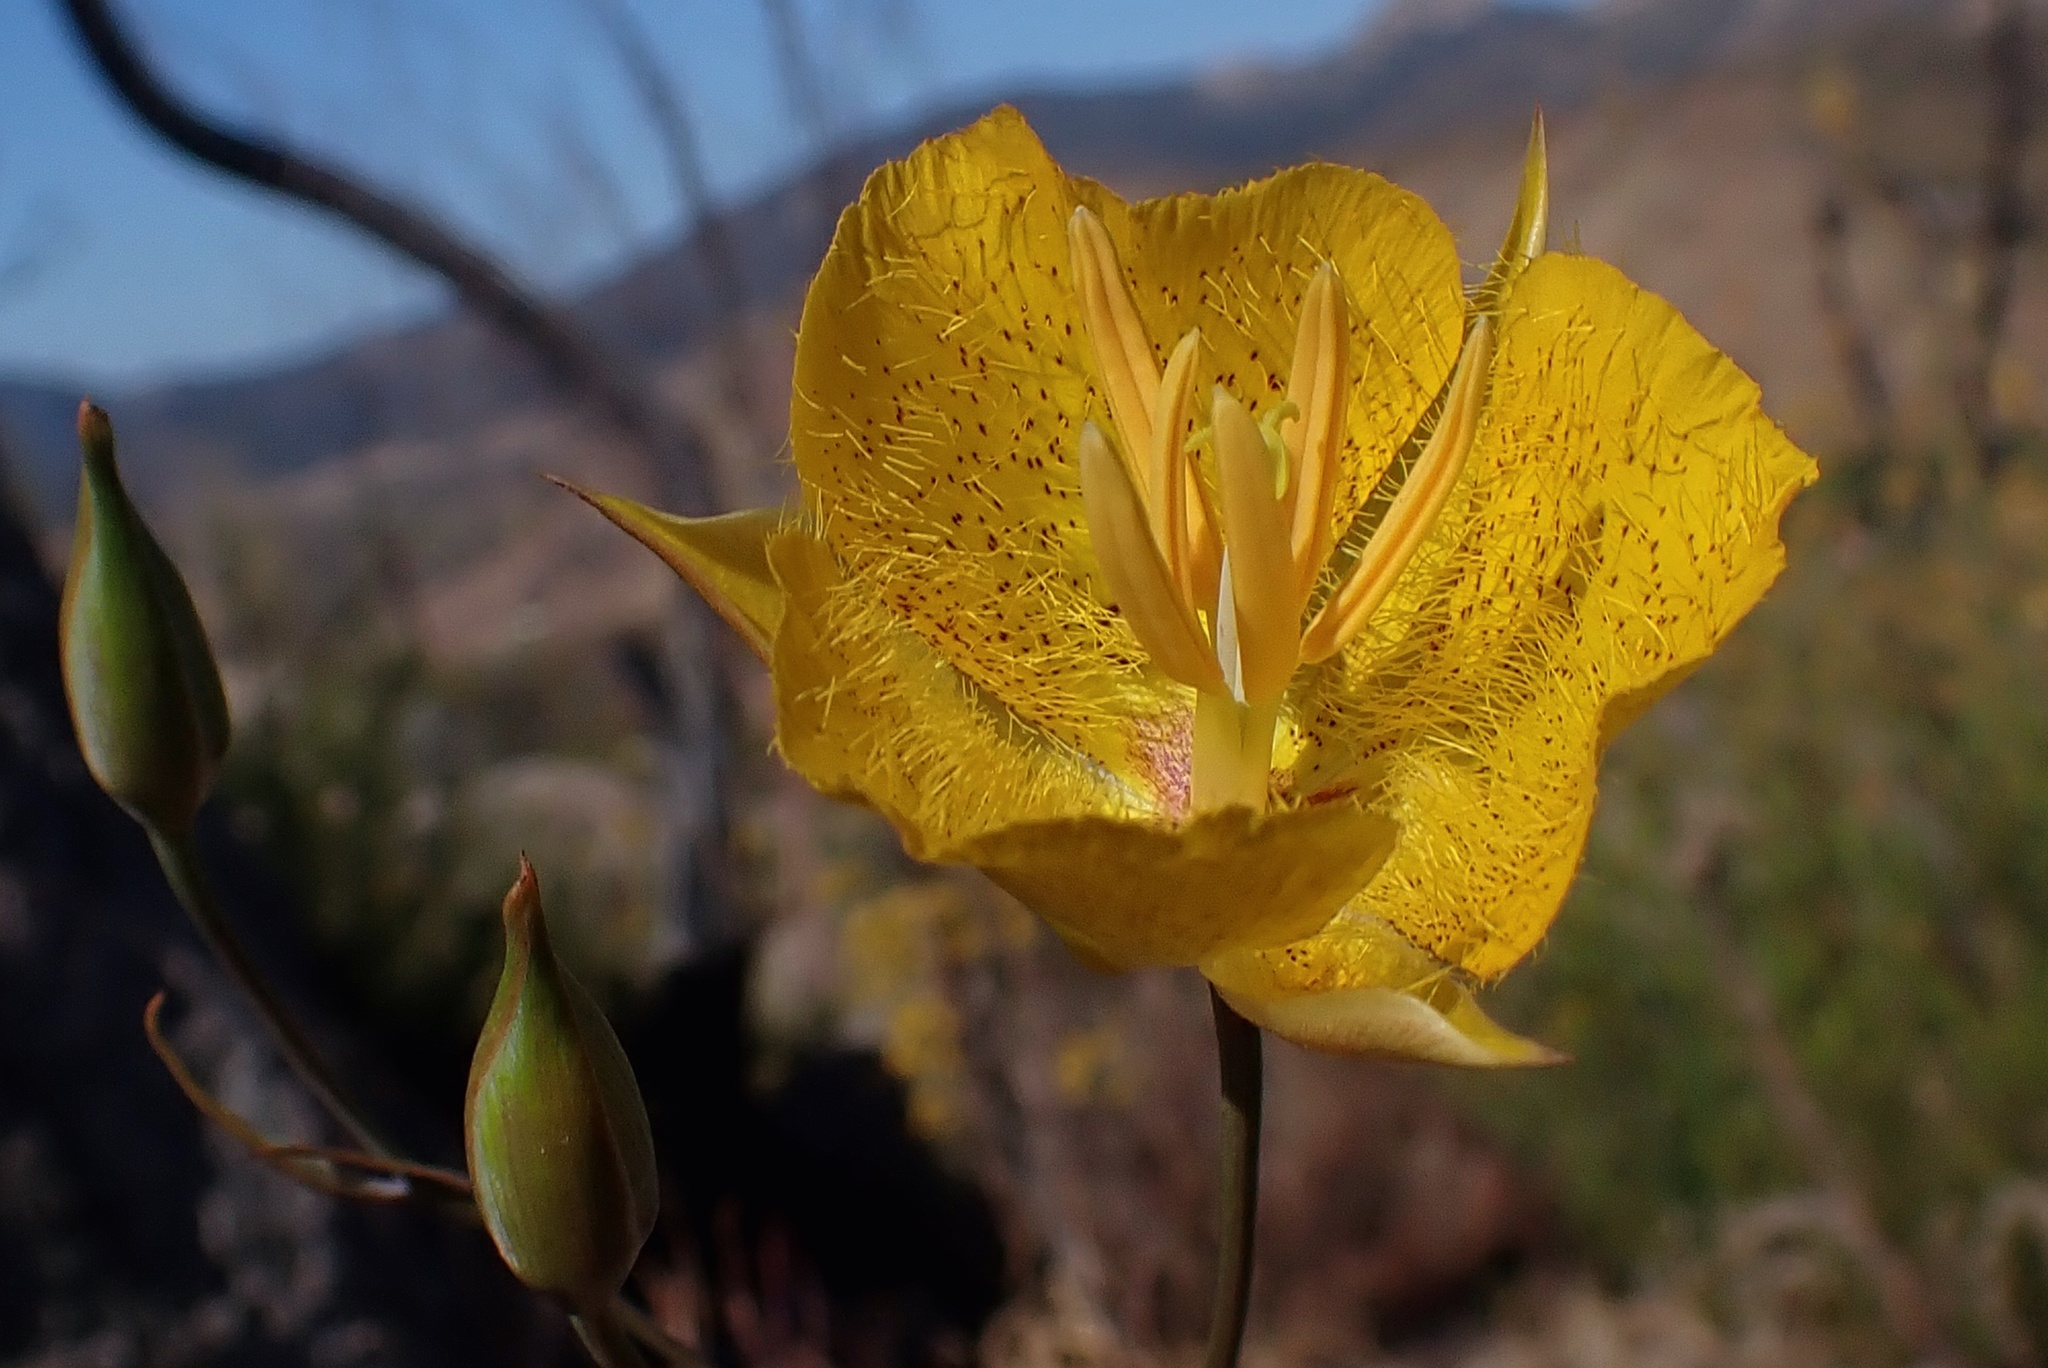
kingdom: Plantae
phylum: Tracheophyta
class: Liliopsida
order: Liliales
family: Liliaceae
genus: Calochortus
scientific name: Calochortus weedii
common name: Weed's mariposa-lily
